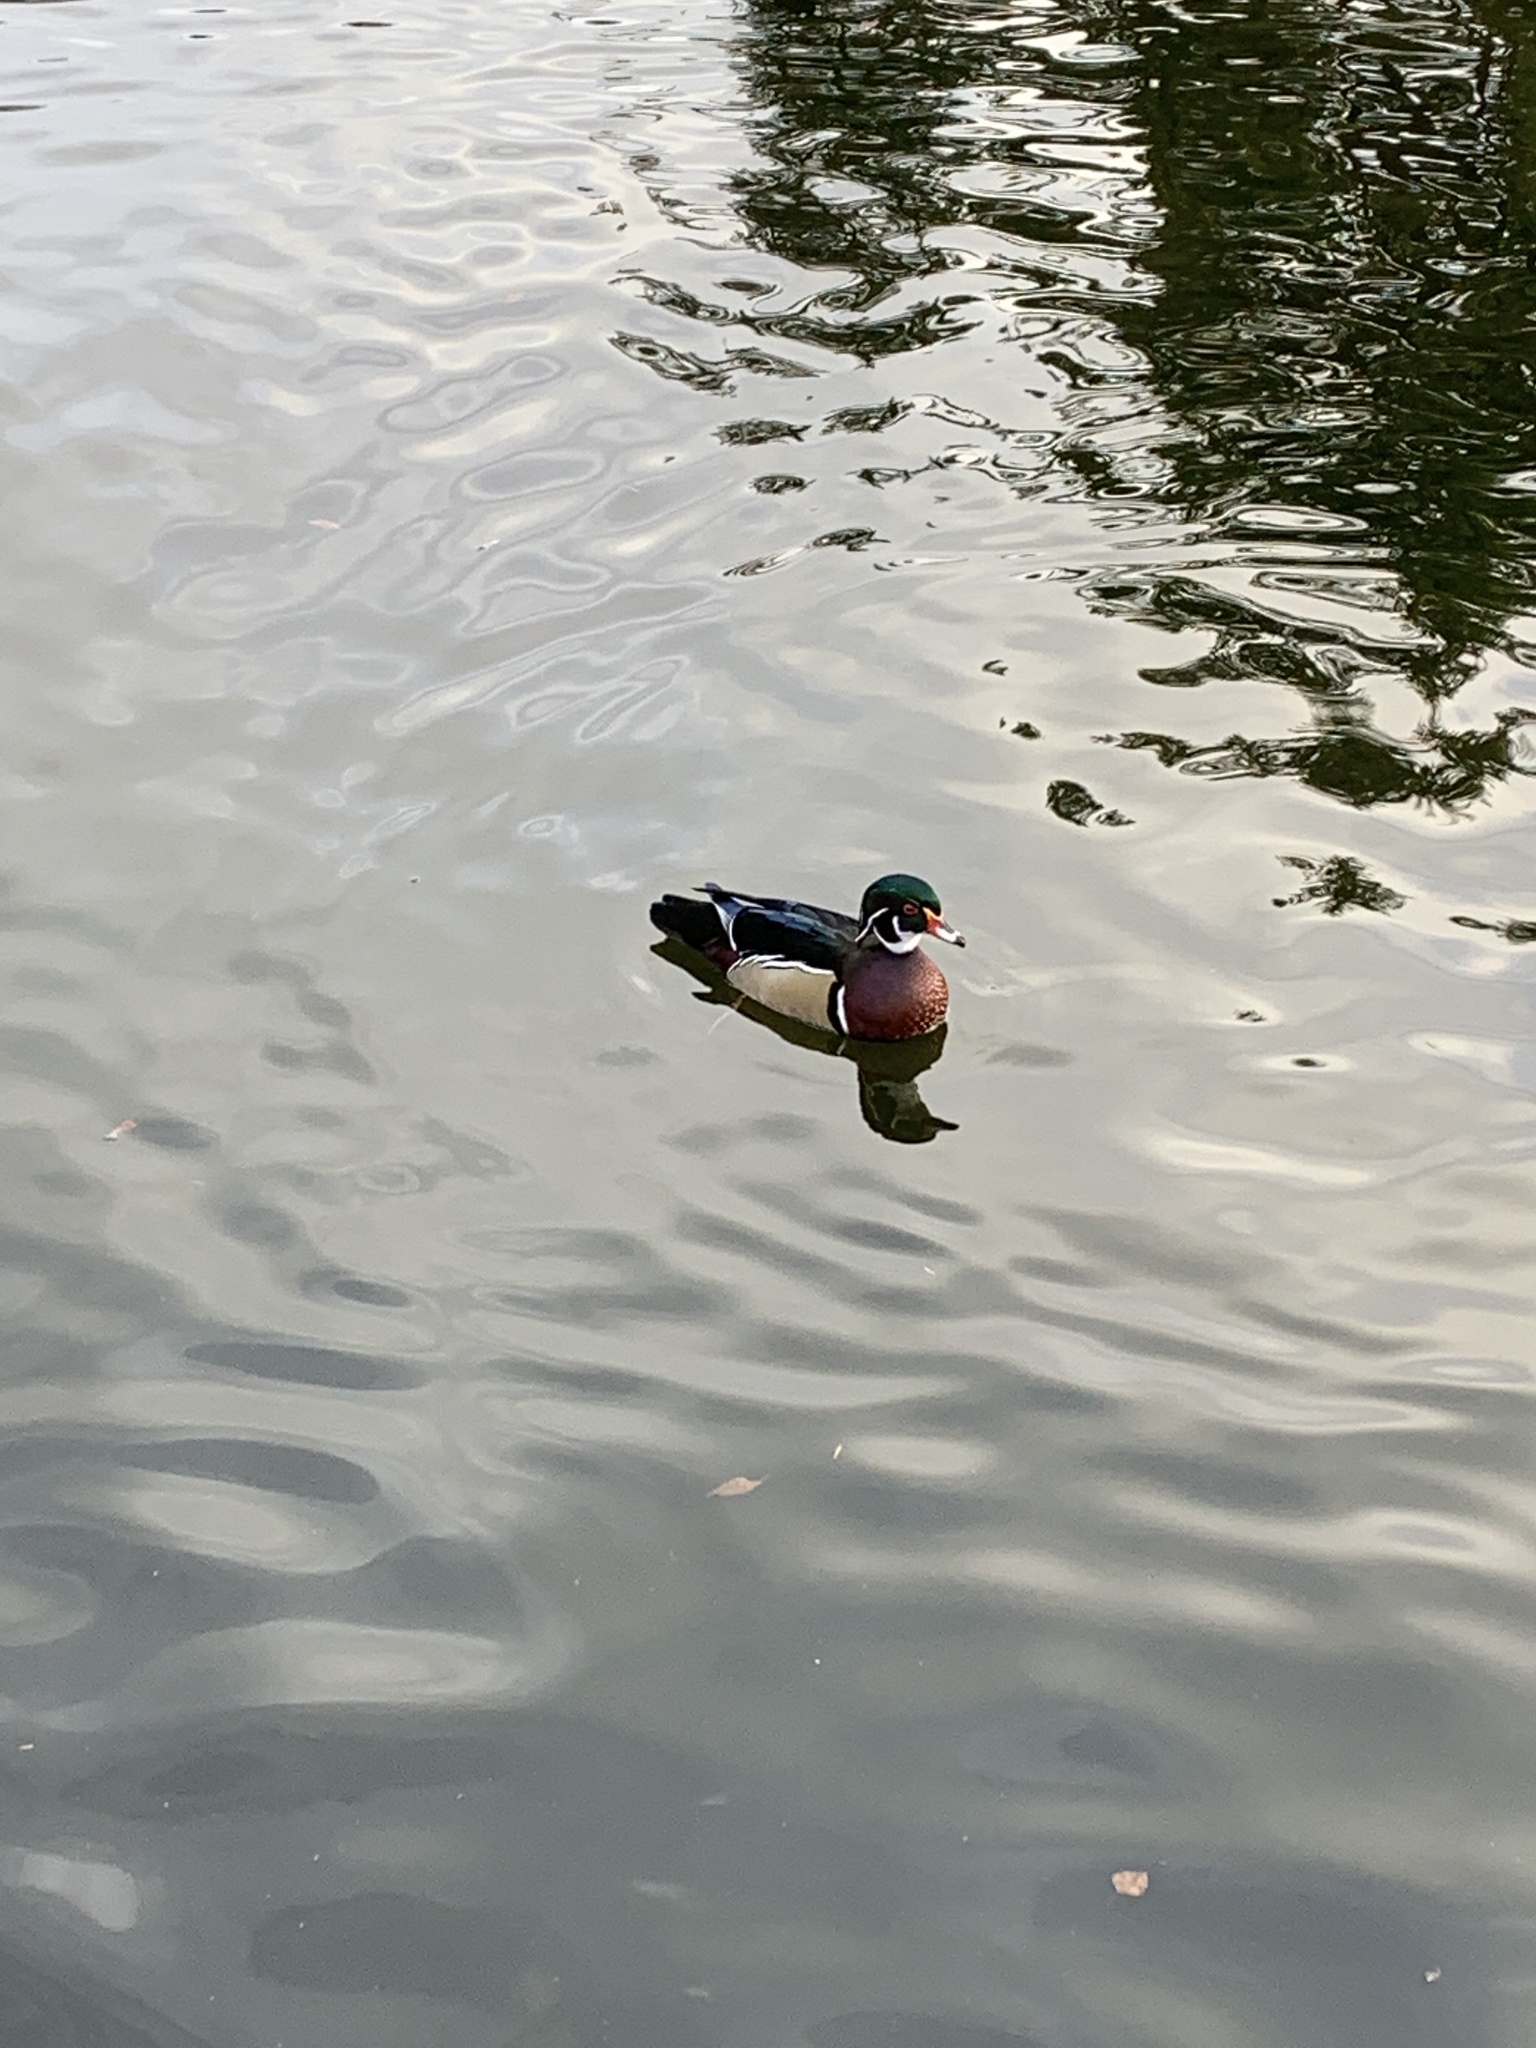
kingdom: Animalia
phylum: Chordata
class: Aves
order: Anseriformes
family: Anatidae
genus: Aix
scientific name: Aix sponsa
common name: Wood duck
